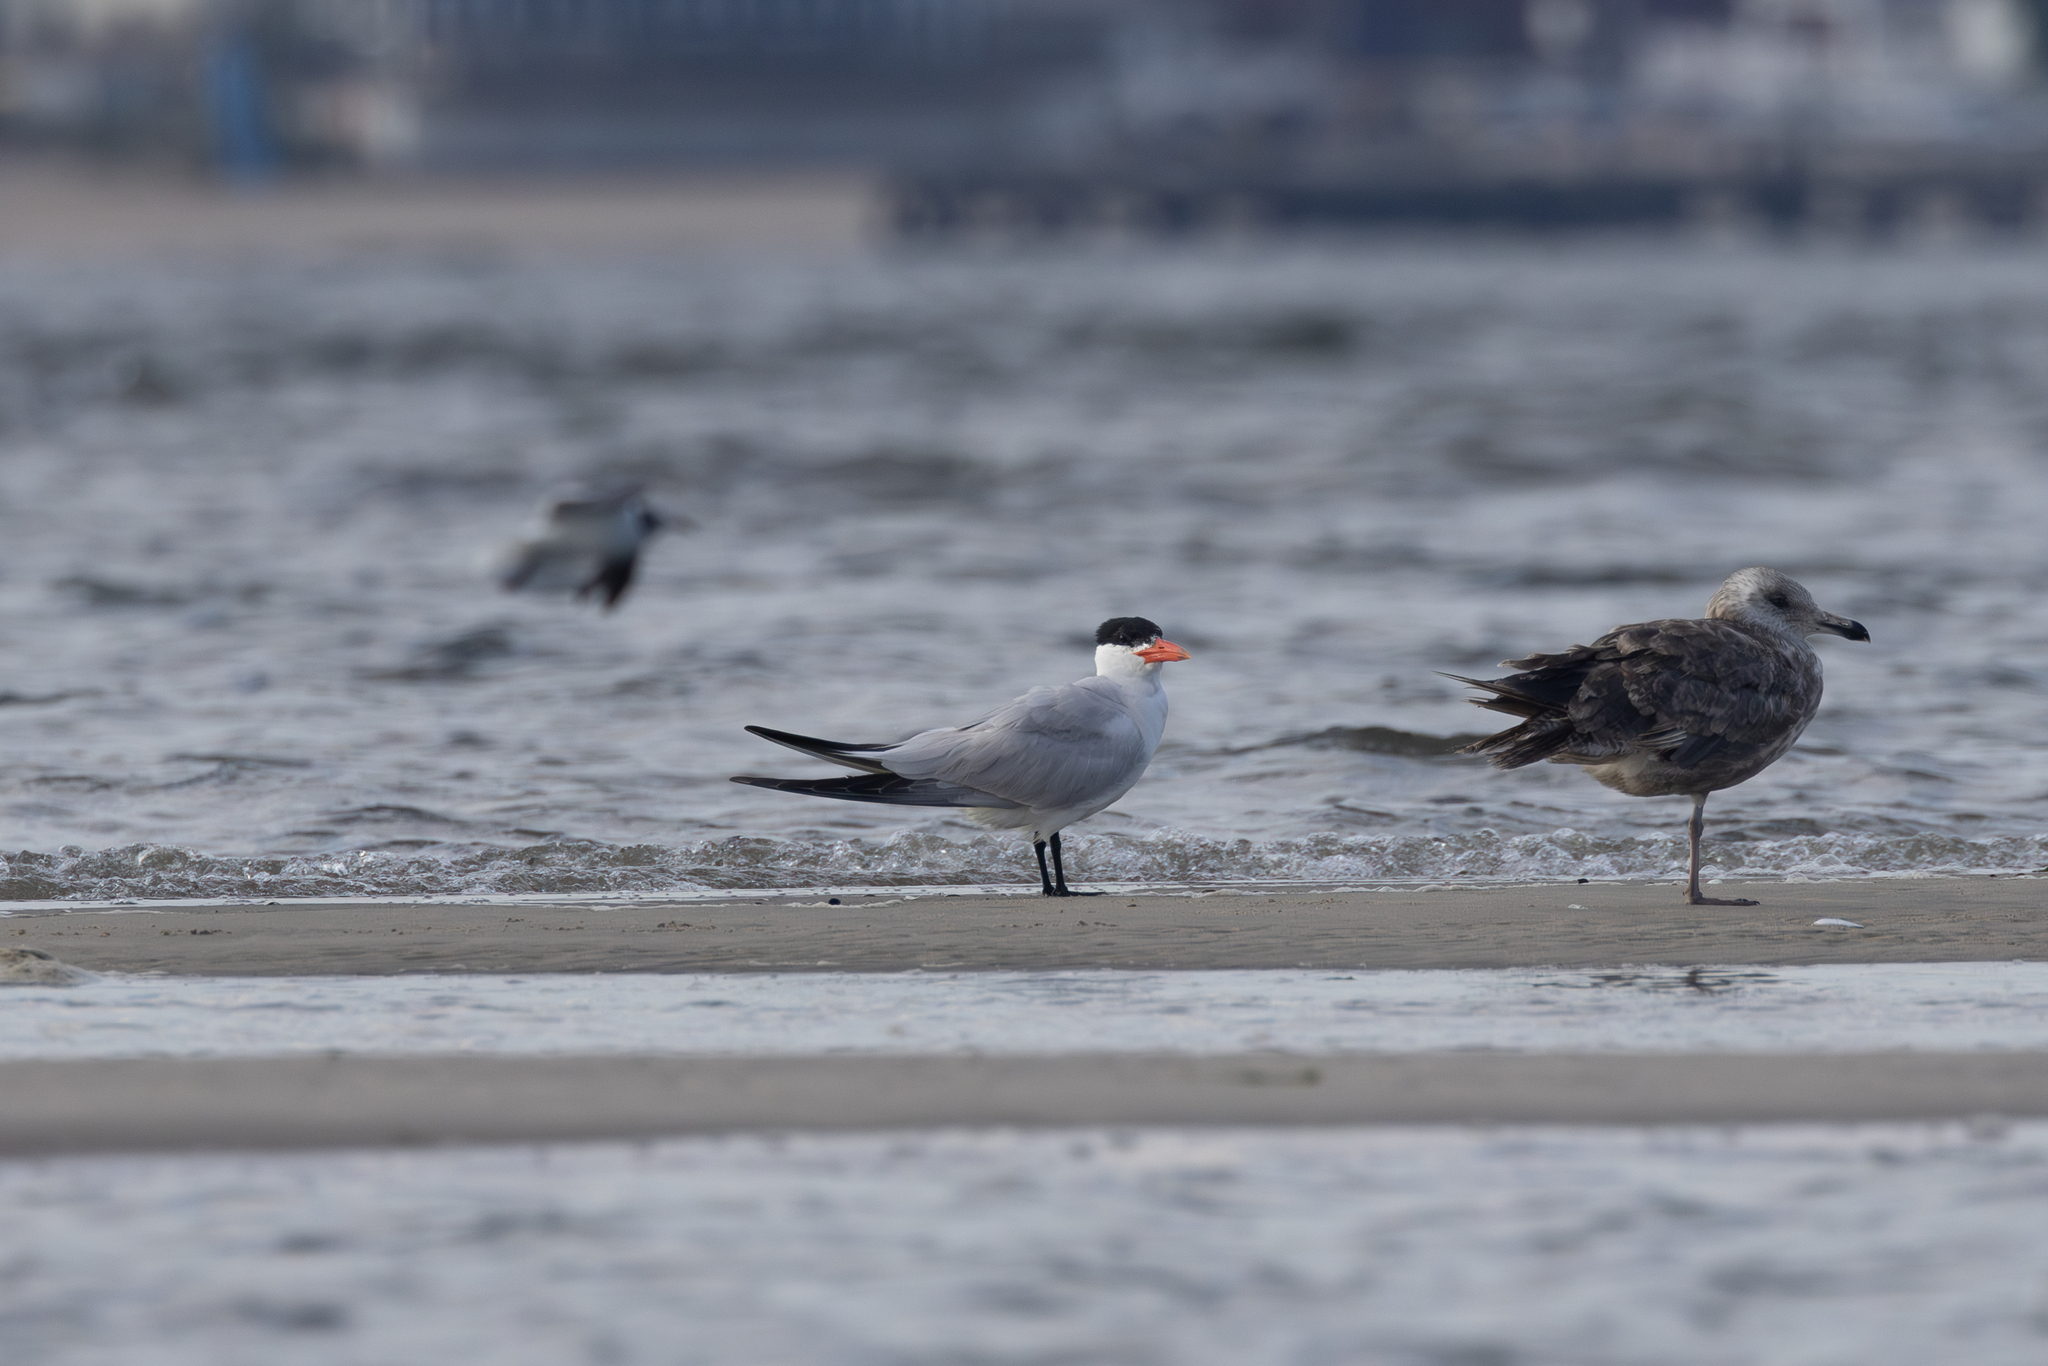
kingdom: Animalia
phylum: Chordata
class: Aves
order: Charadriiformes
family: Laridae
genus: Hydroprogne
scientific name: Hydroprogne caspia
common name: Caspian tern
